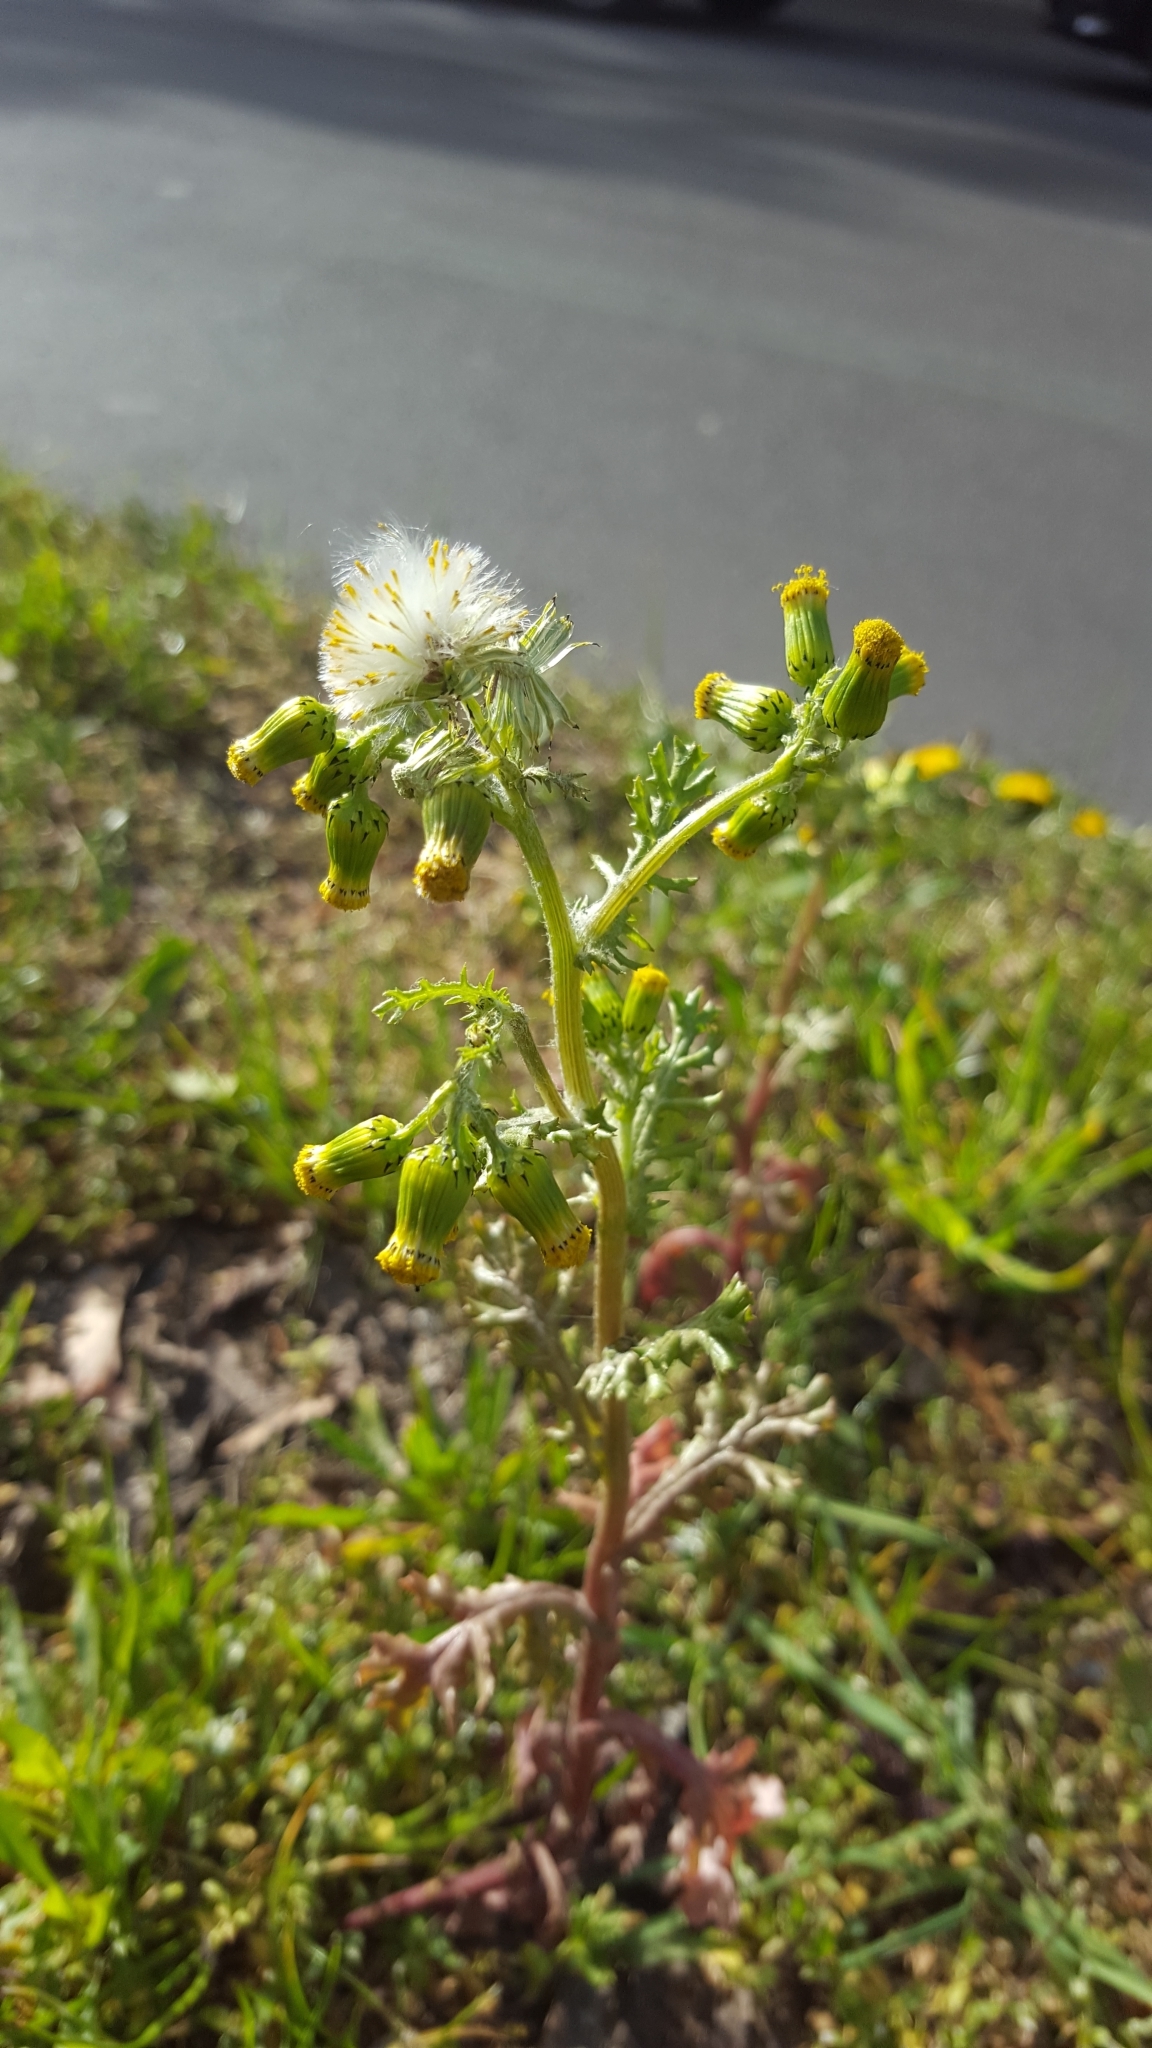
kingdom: Plantae
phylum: Tracheophyta
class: Magnoliopsida
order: Asterales
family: Asteraceae
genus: Senecio
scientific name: Senecio vulgaris
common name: Old-man-in-the-spring
